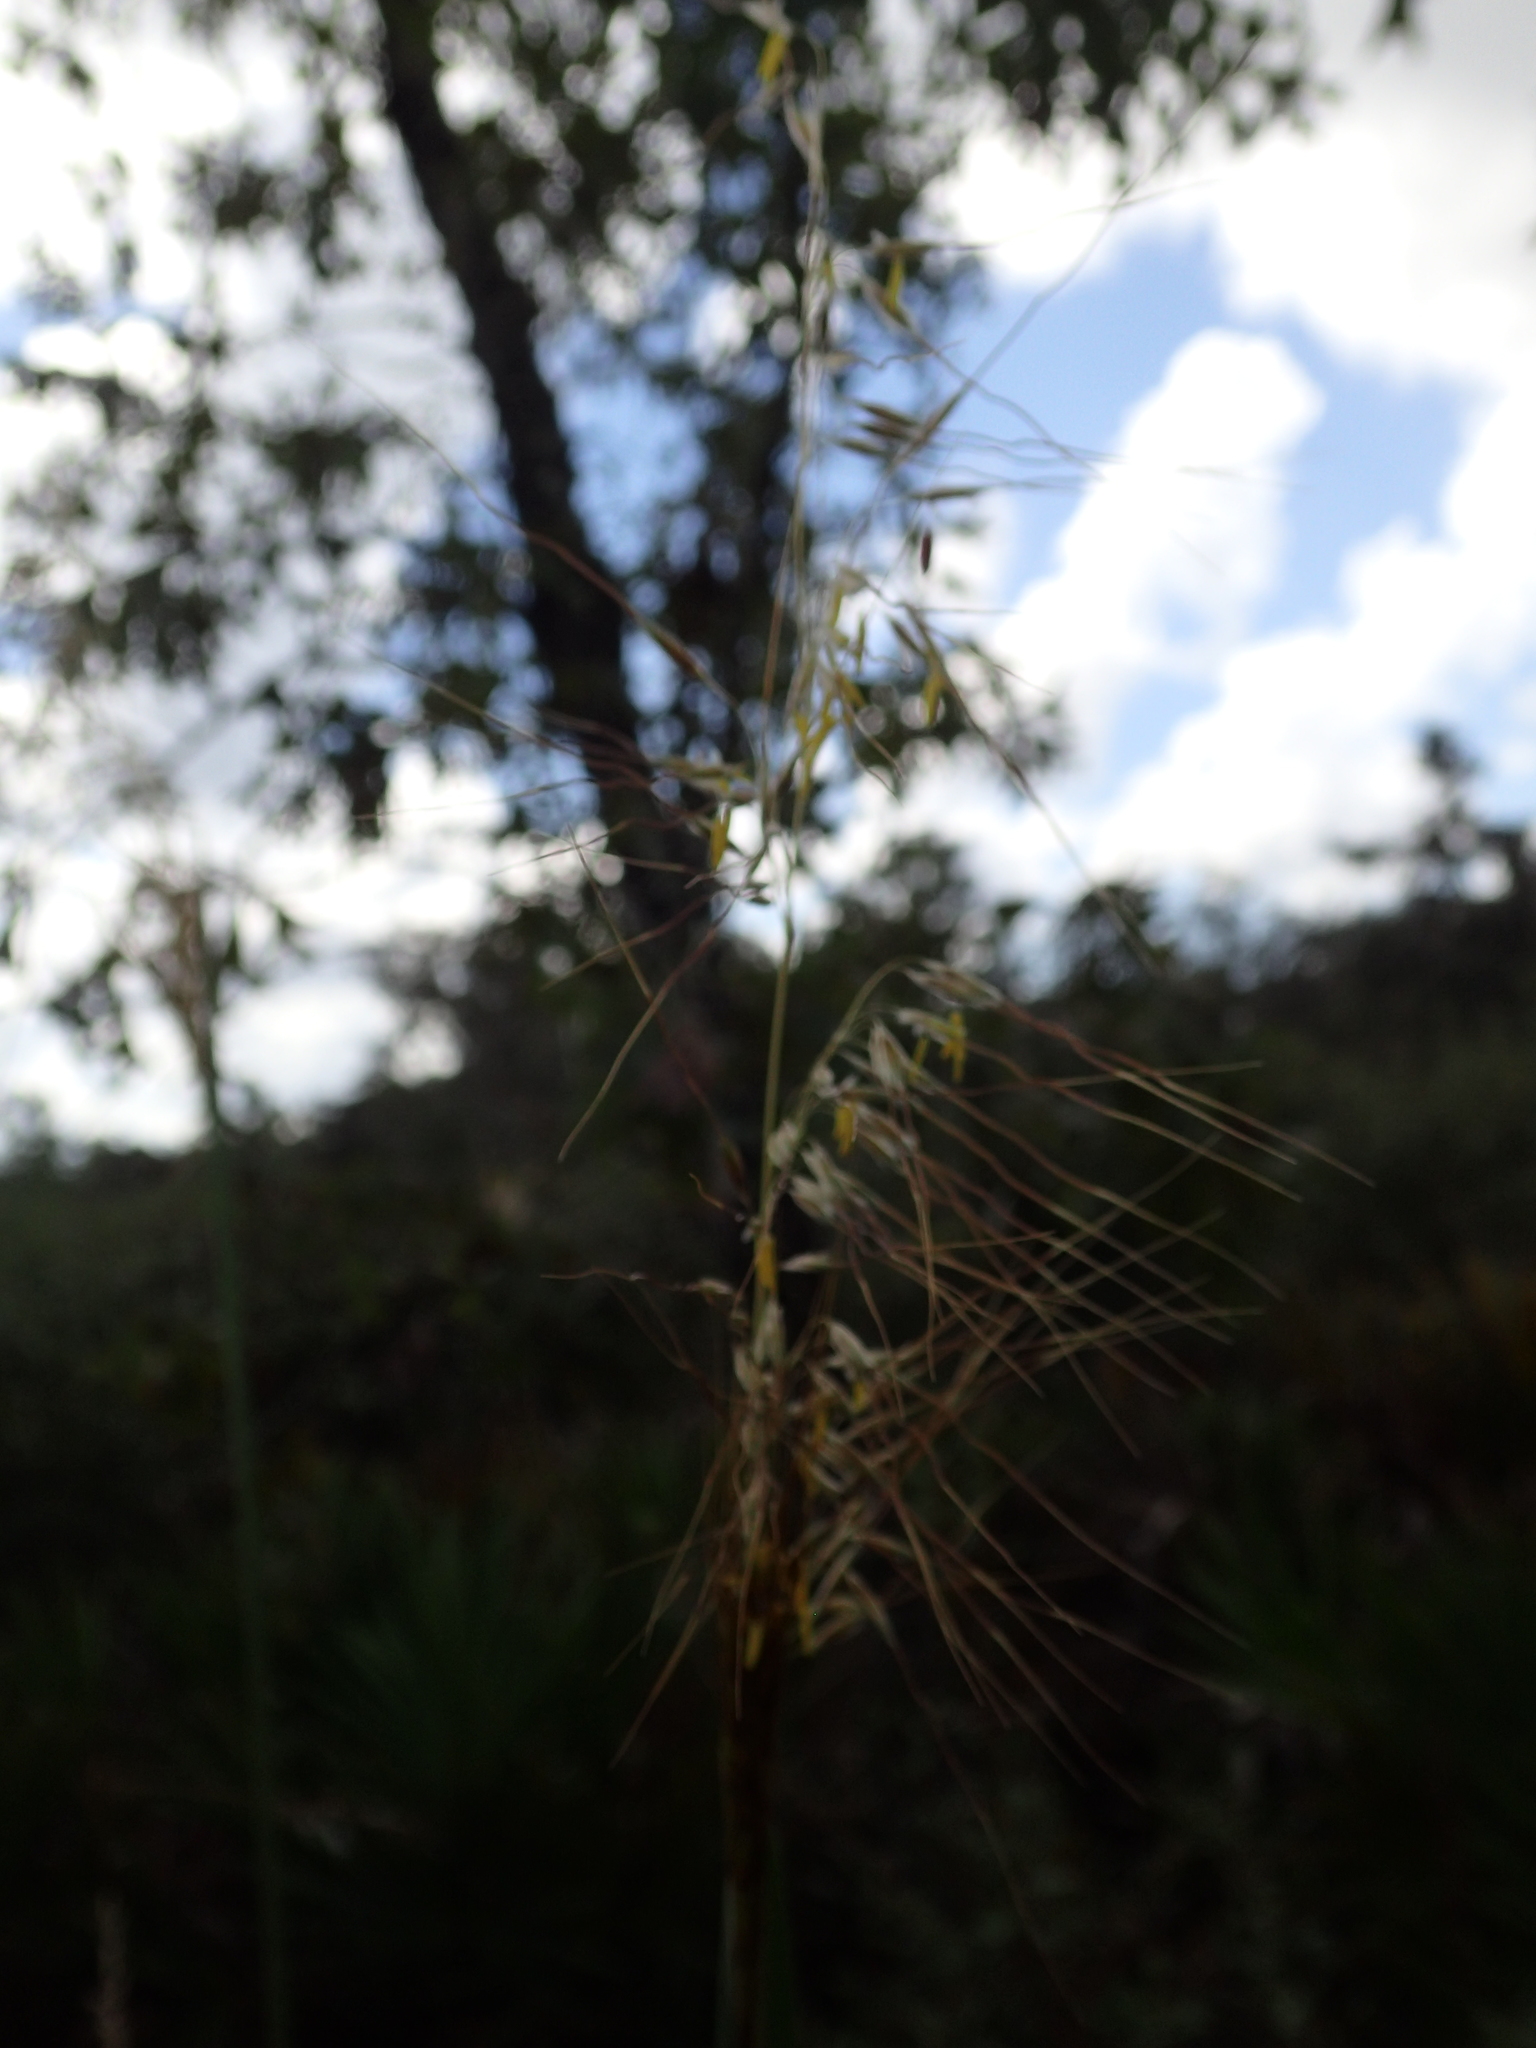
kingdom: Plantae
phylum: Tracheophyta
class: Liliopsida
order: Poales
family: Poaceae
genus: Sorghastrum
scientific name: Sorghastrum secundum
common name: Lopsided indian grass
